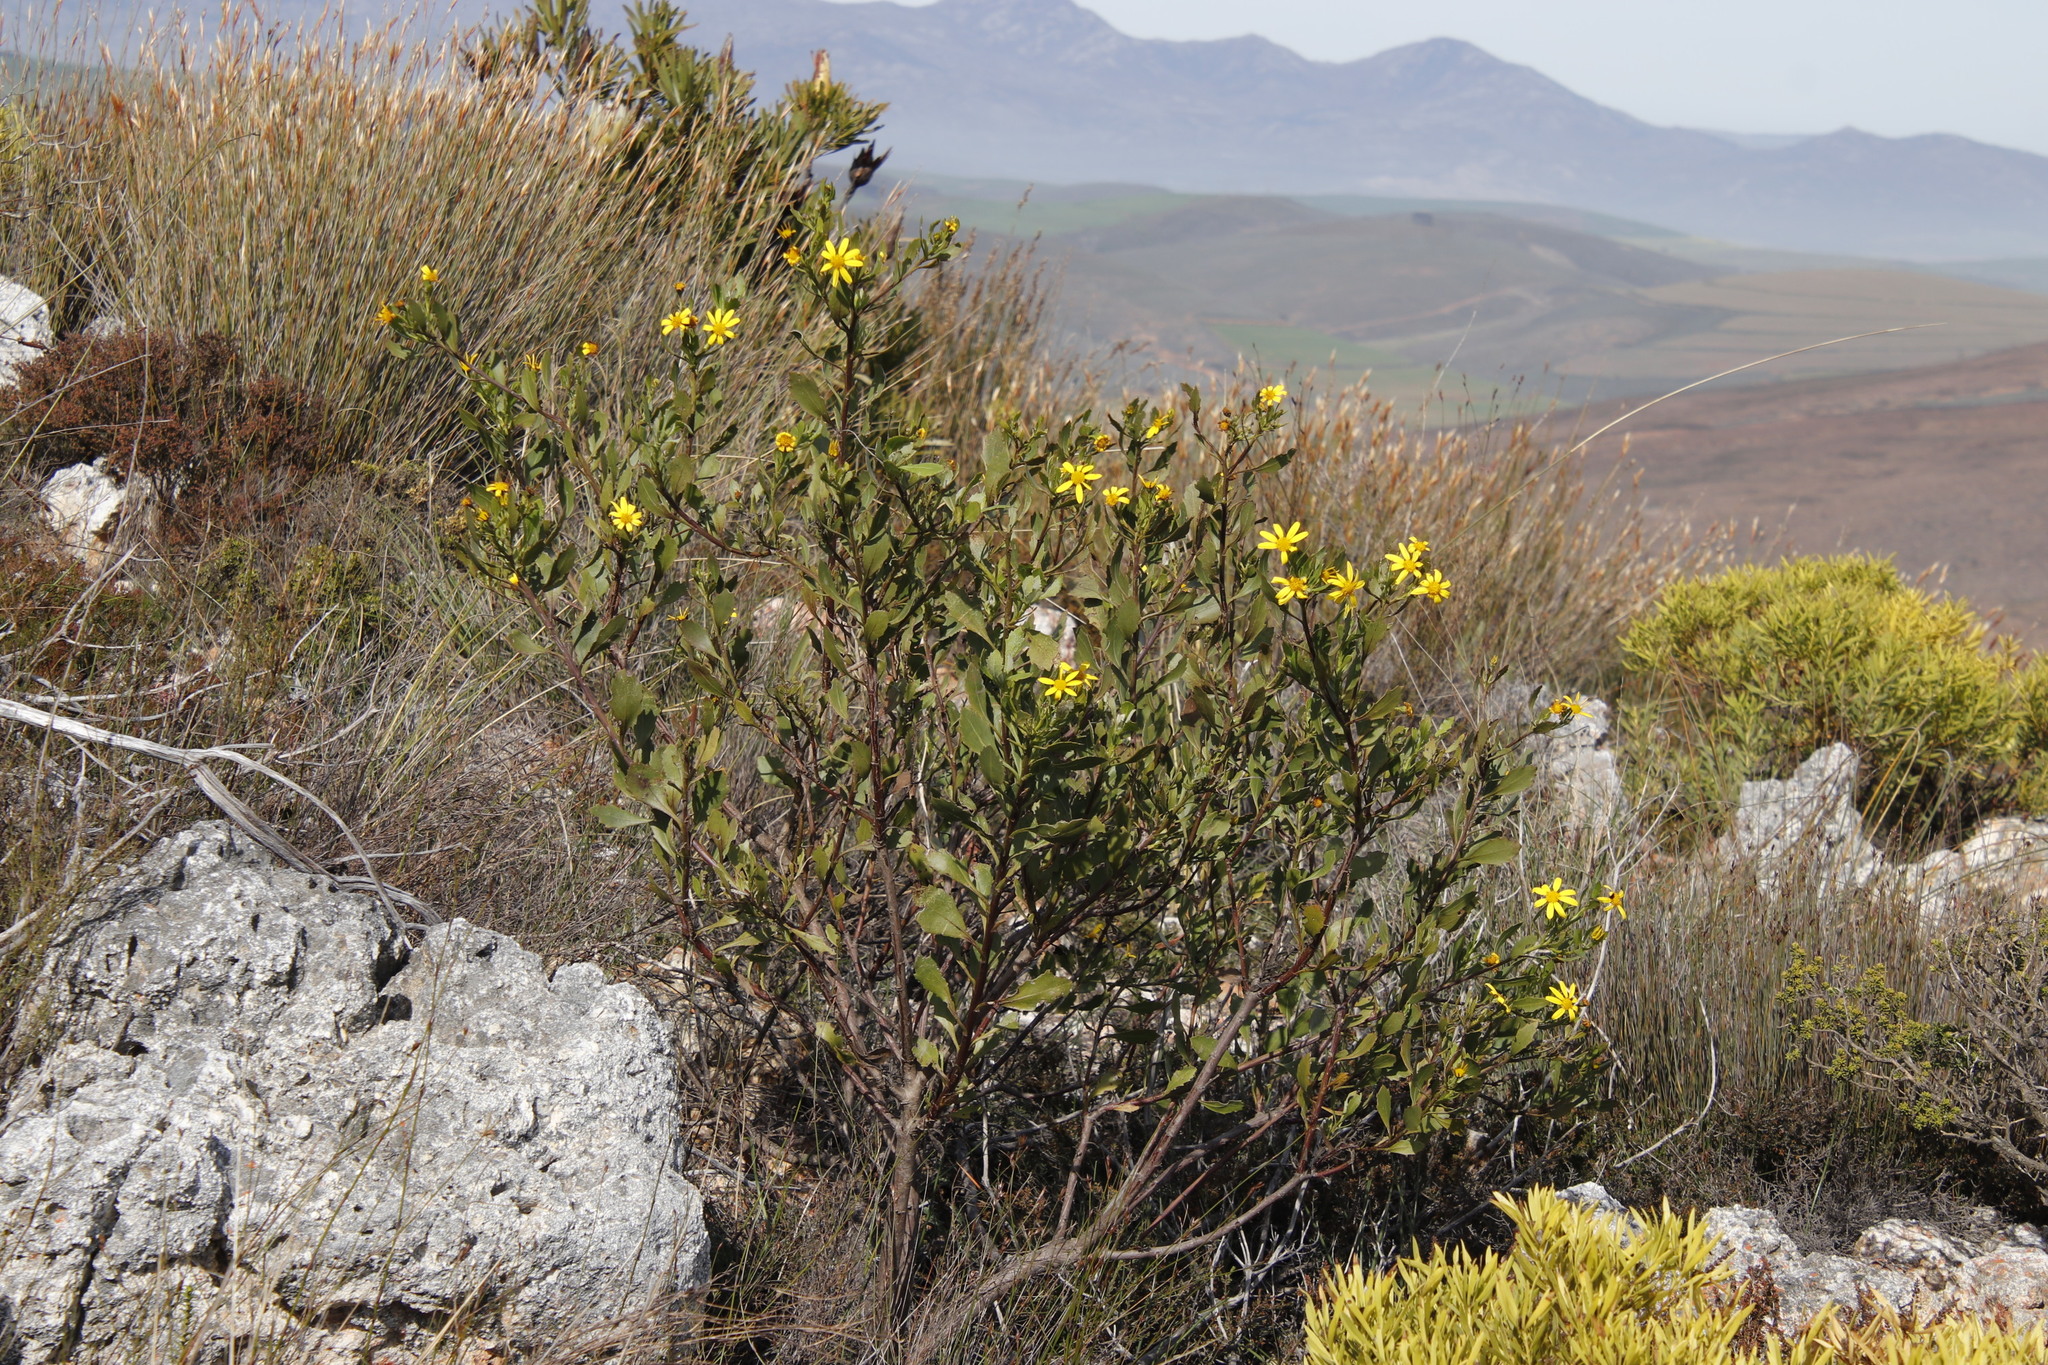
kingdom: Plantae
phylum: Tracheophyta
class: Magnoliopsida
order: Asterales
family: Asteraceae
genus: Osteospermum
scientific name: Osteospermum moniliferum
